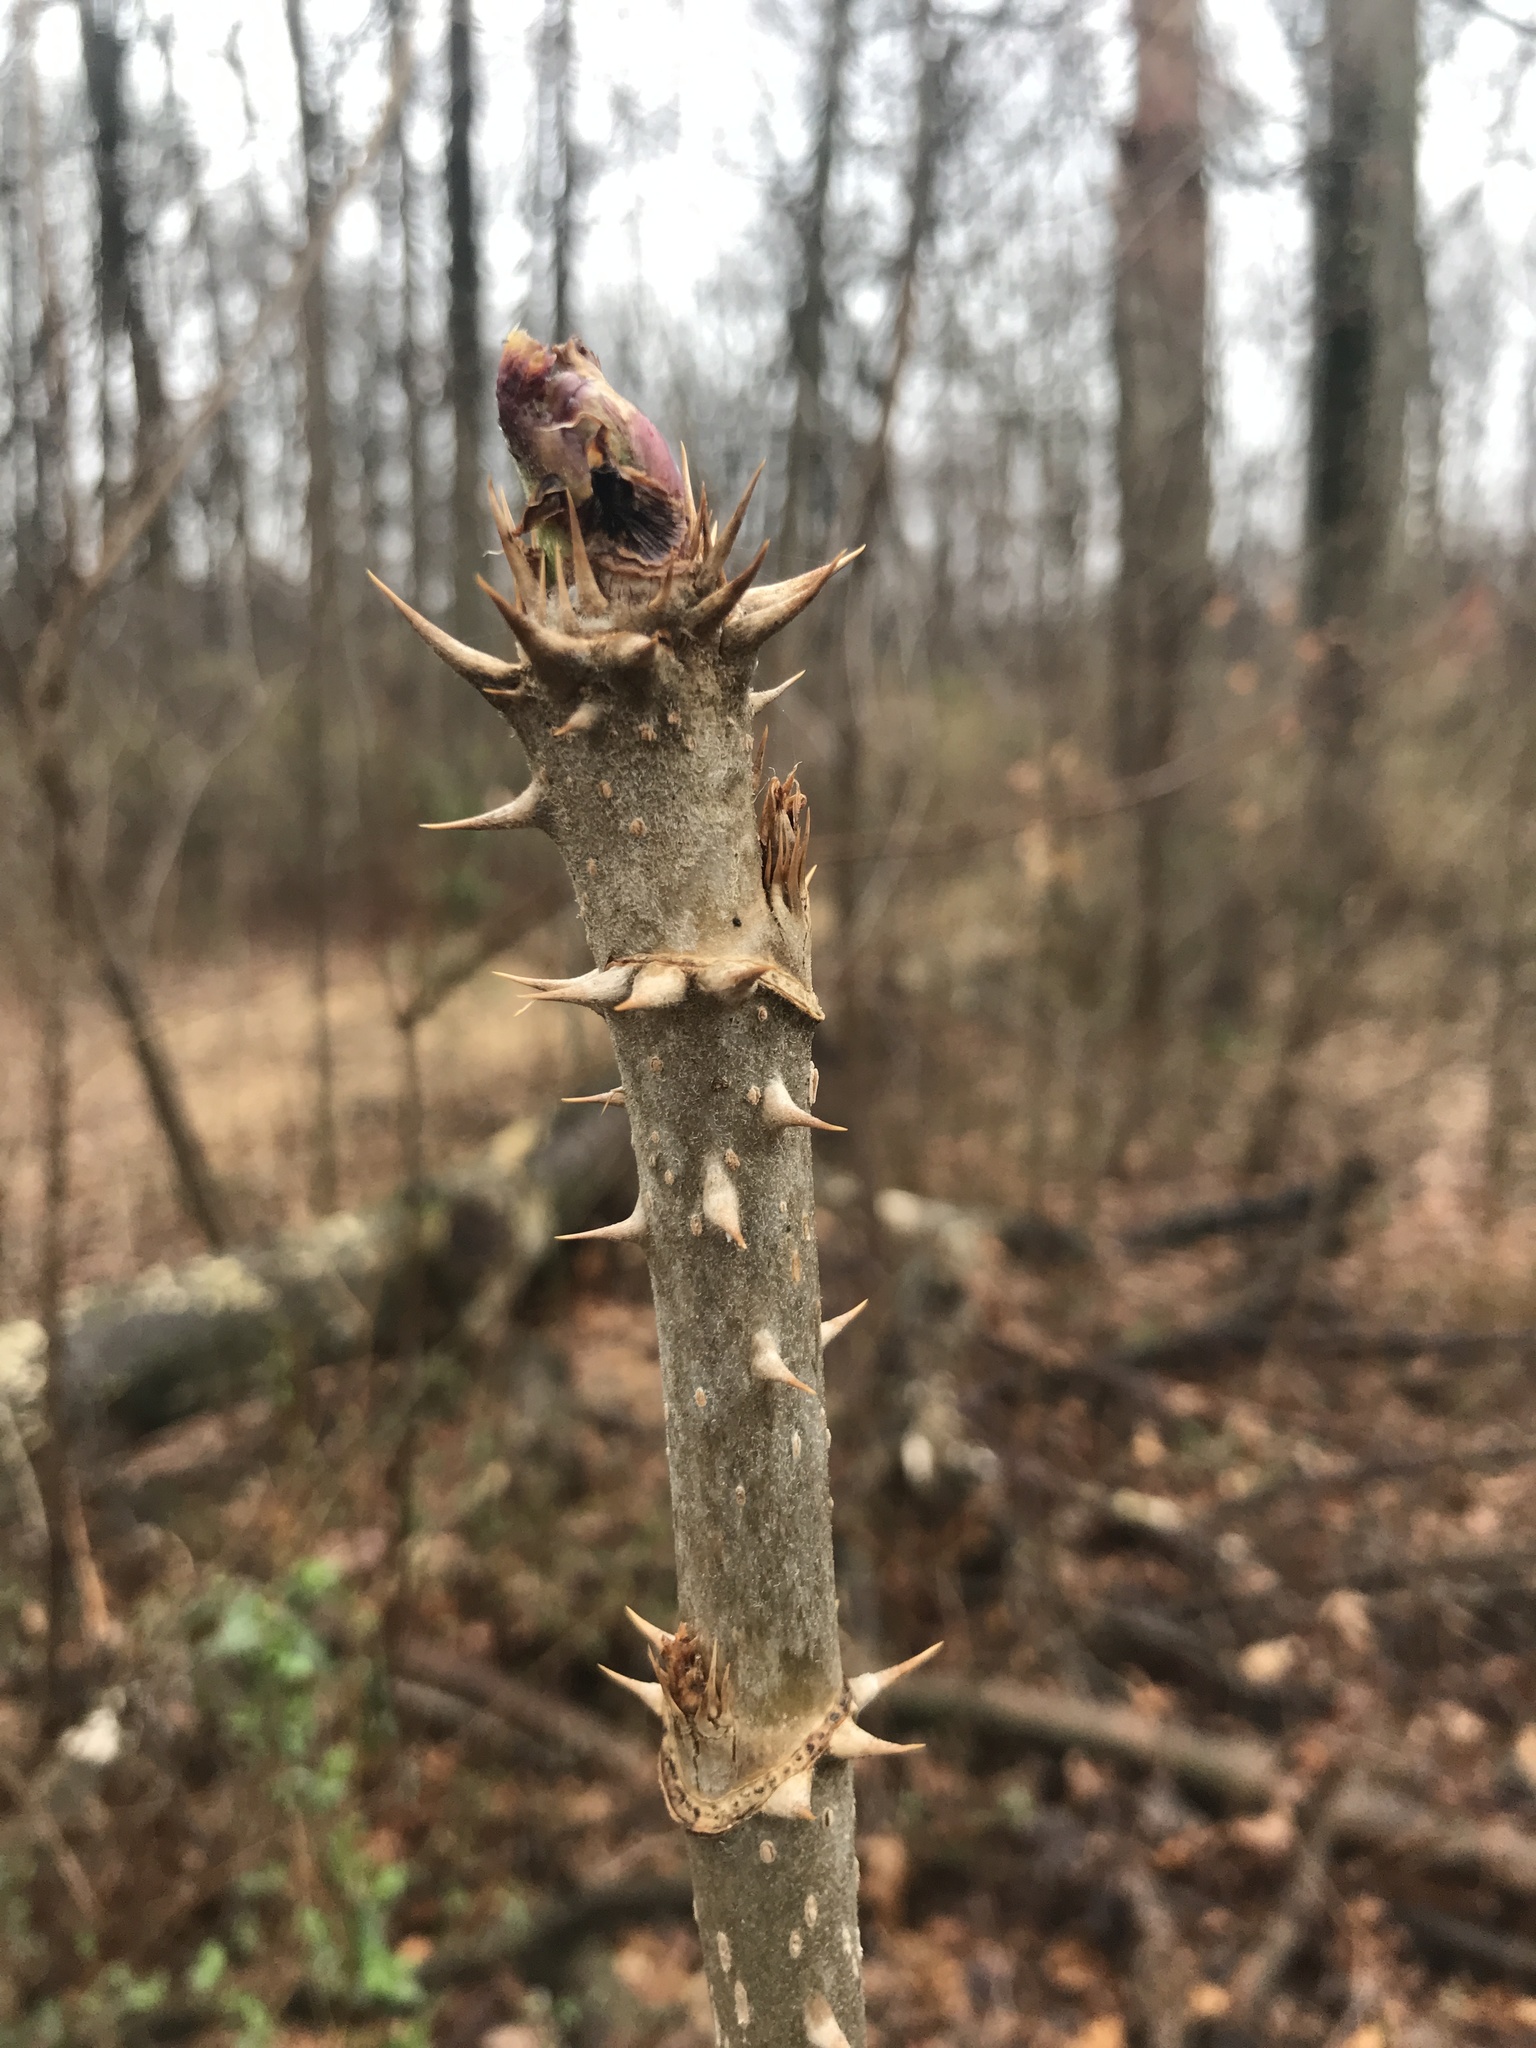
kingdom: Plantae
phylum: Tracheophyta
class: Magnoliopsida
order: Apiales
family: Araliaceae
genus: Aralia
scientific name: Aralia elata
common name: Japanese angelica-tree
